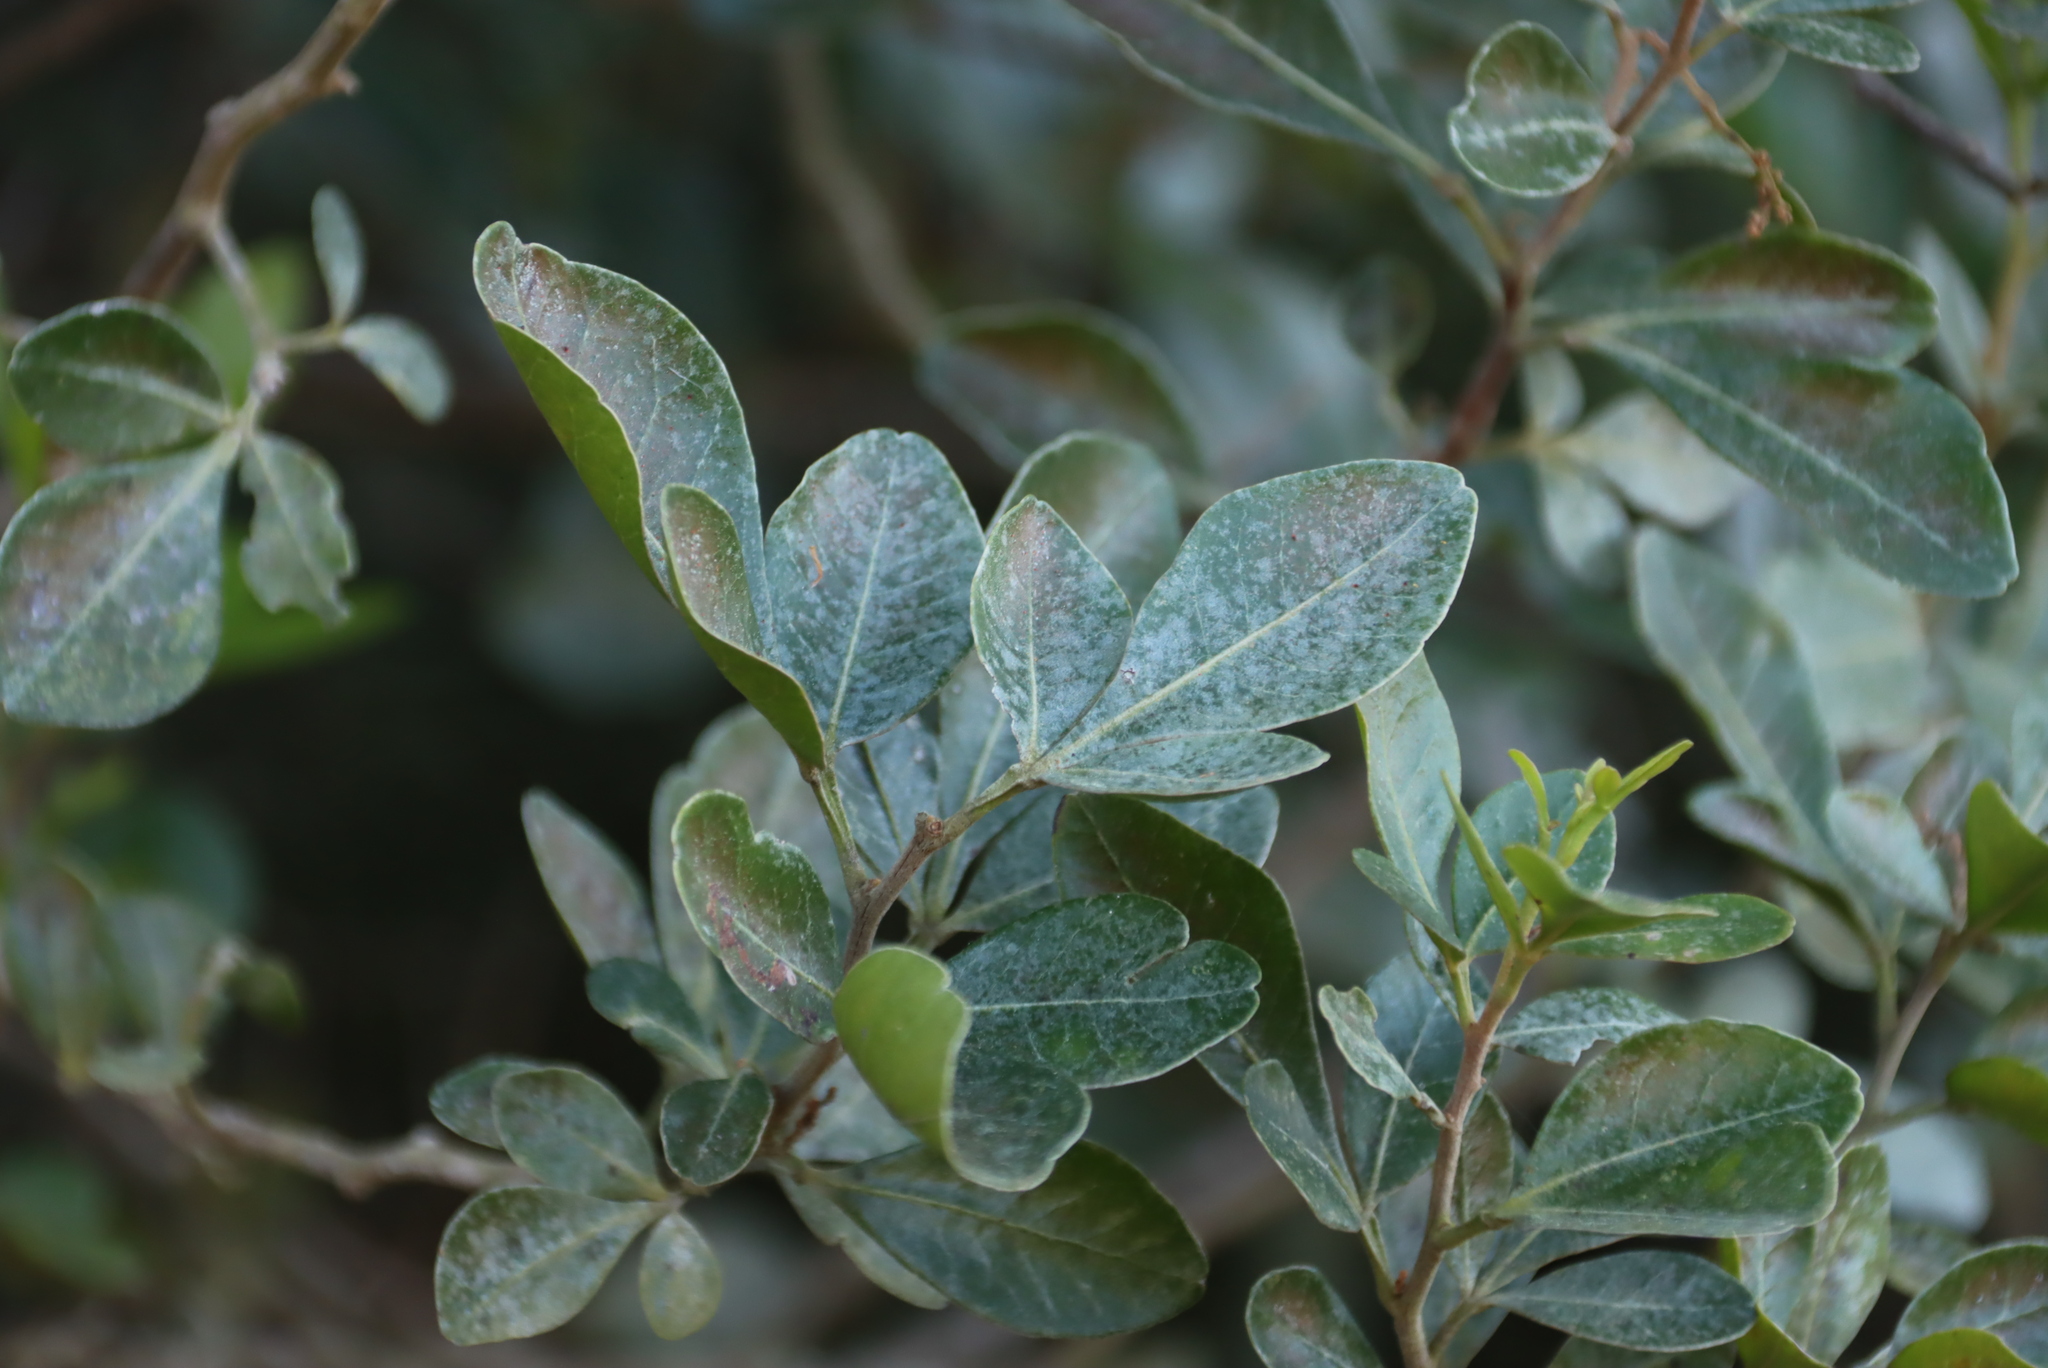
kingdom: Plantae
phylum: Tracheophyta
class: Magnoliopsida
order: Sapindales
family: Anacardiaceae
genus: Searsia
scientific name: Searsia lucida
